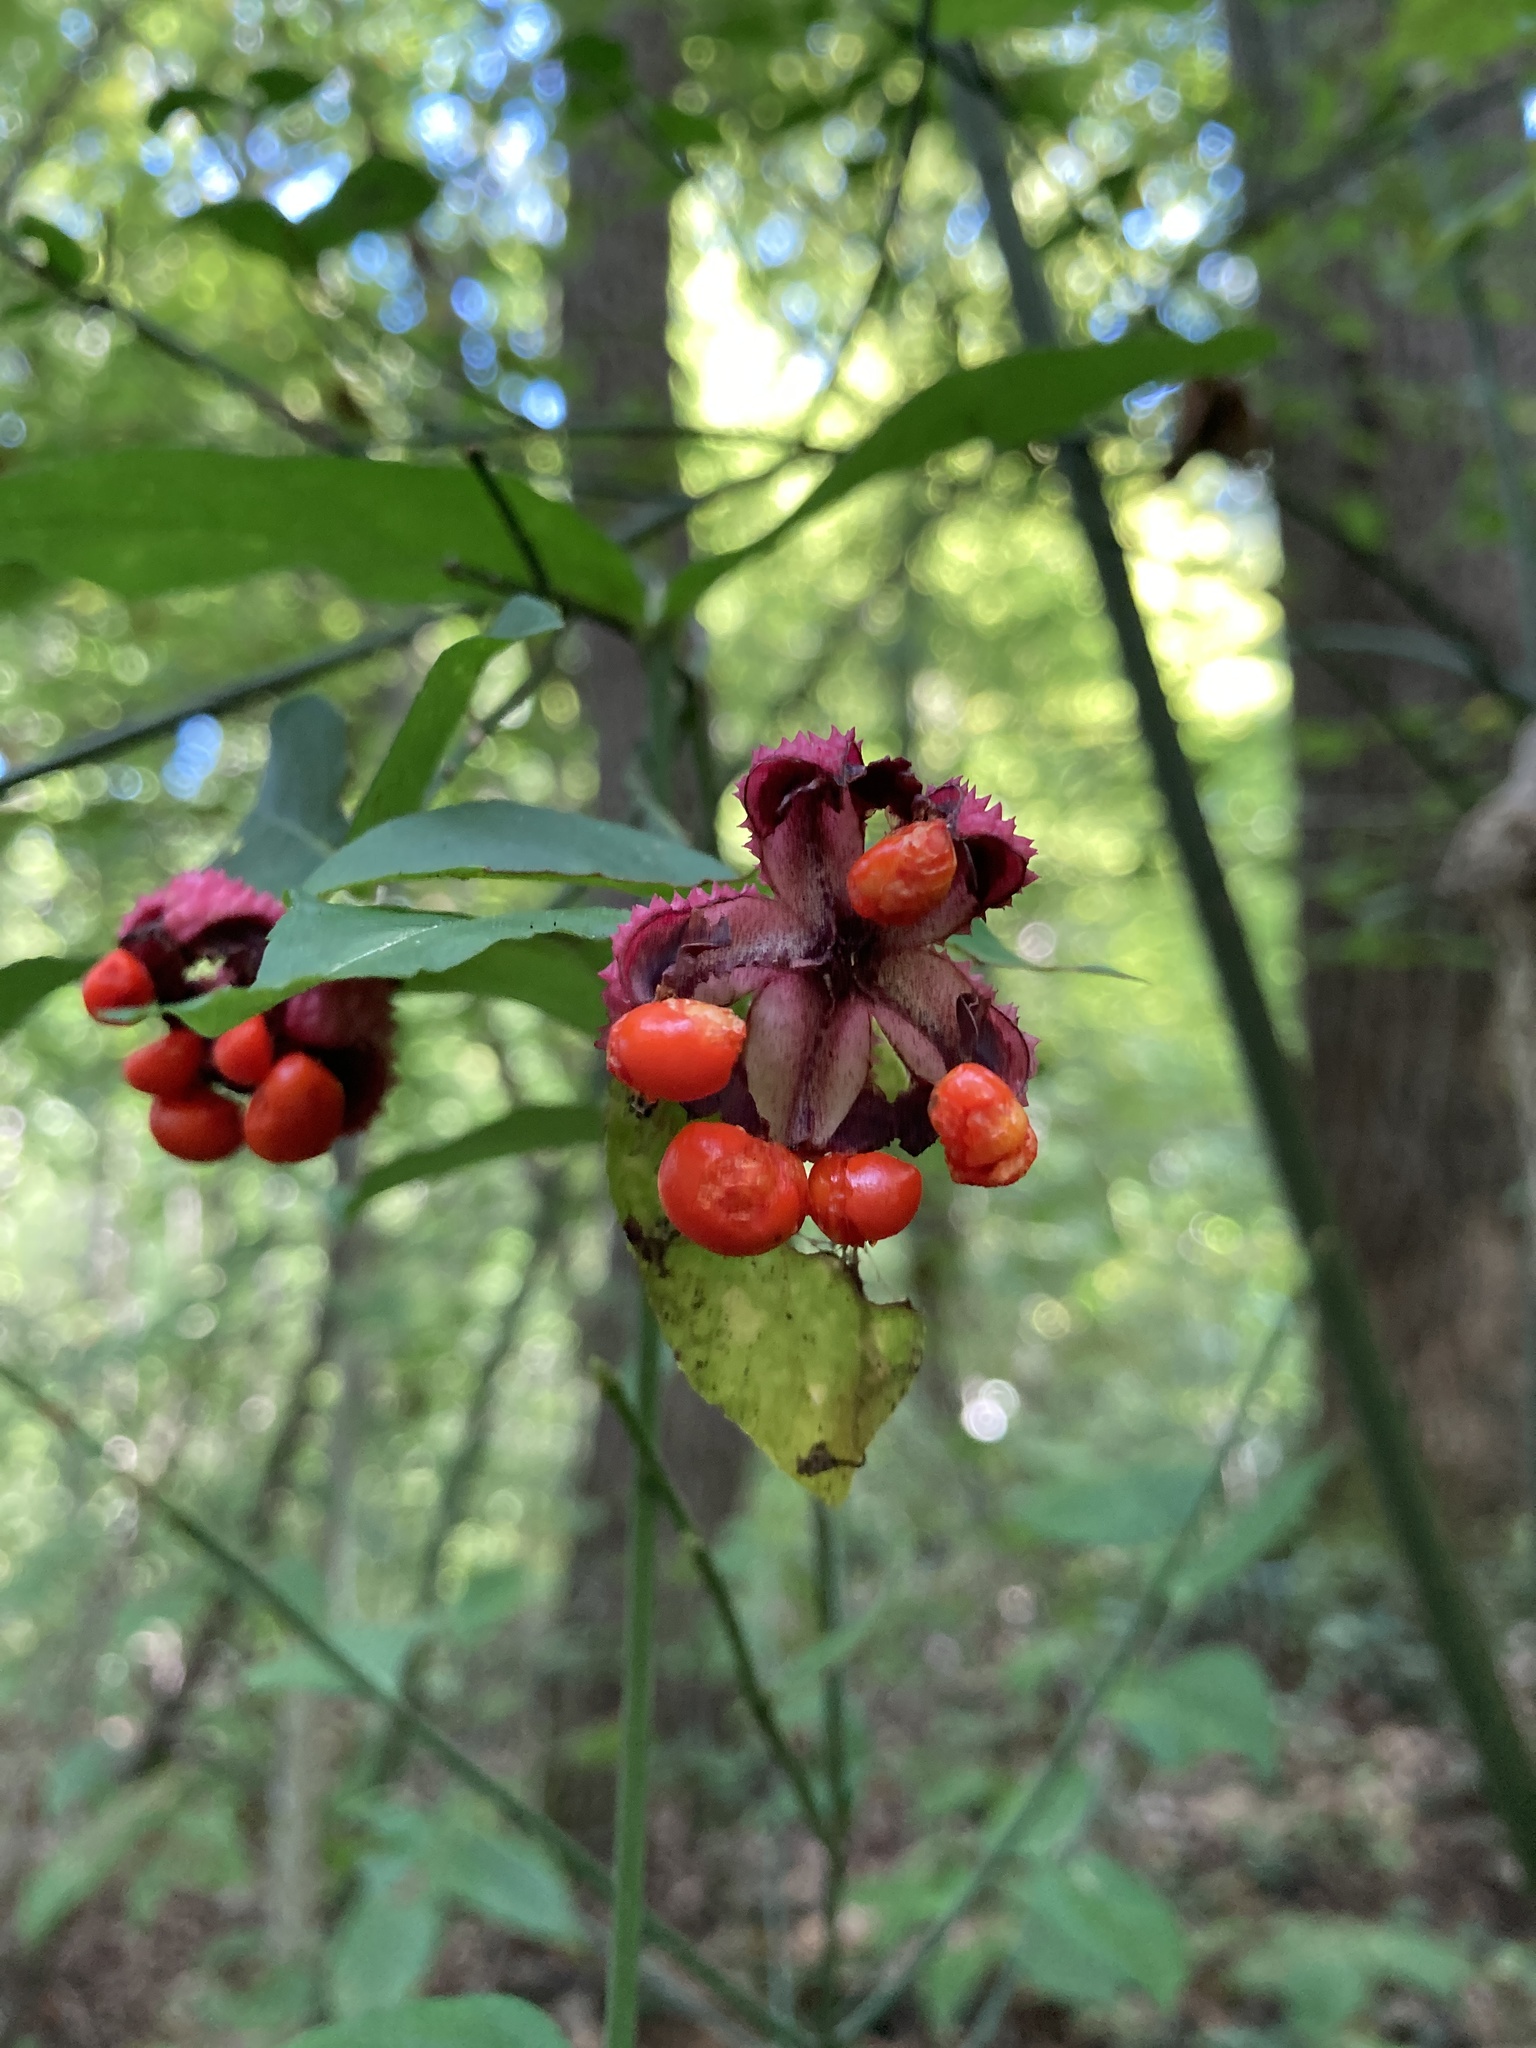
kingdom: Plantae
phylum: Tracheophyta
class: Magnoliopsida
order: Celastrales
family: Celastraceae
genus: Euonymus
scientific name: Euonymus americanus
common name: Bursting-heart
